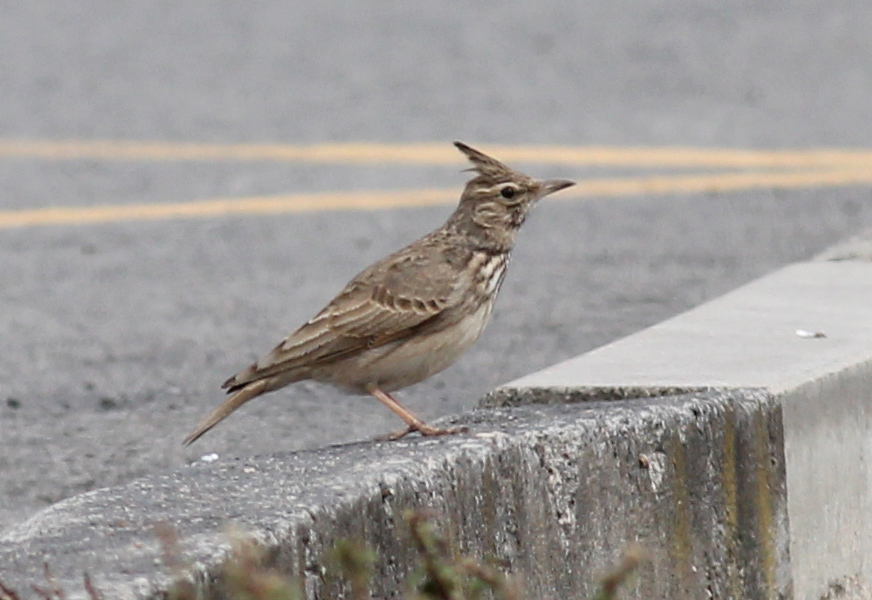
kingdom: Animalia
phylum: Chordata
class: Aves
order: Passeriformes
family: Alaudidae
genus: Galerida
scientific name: Galerida cristata
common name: Crested lark
